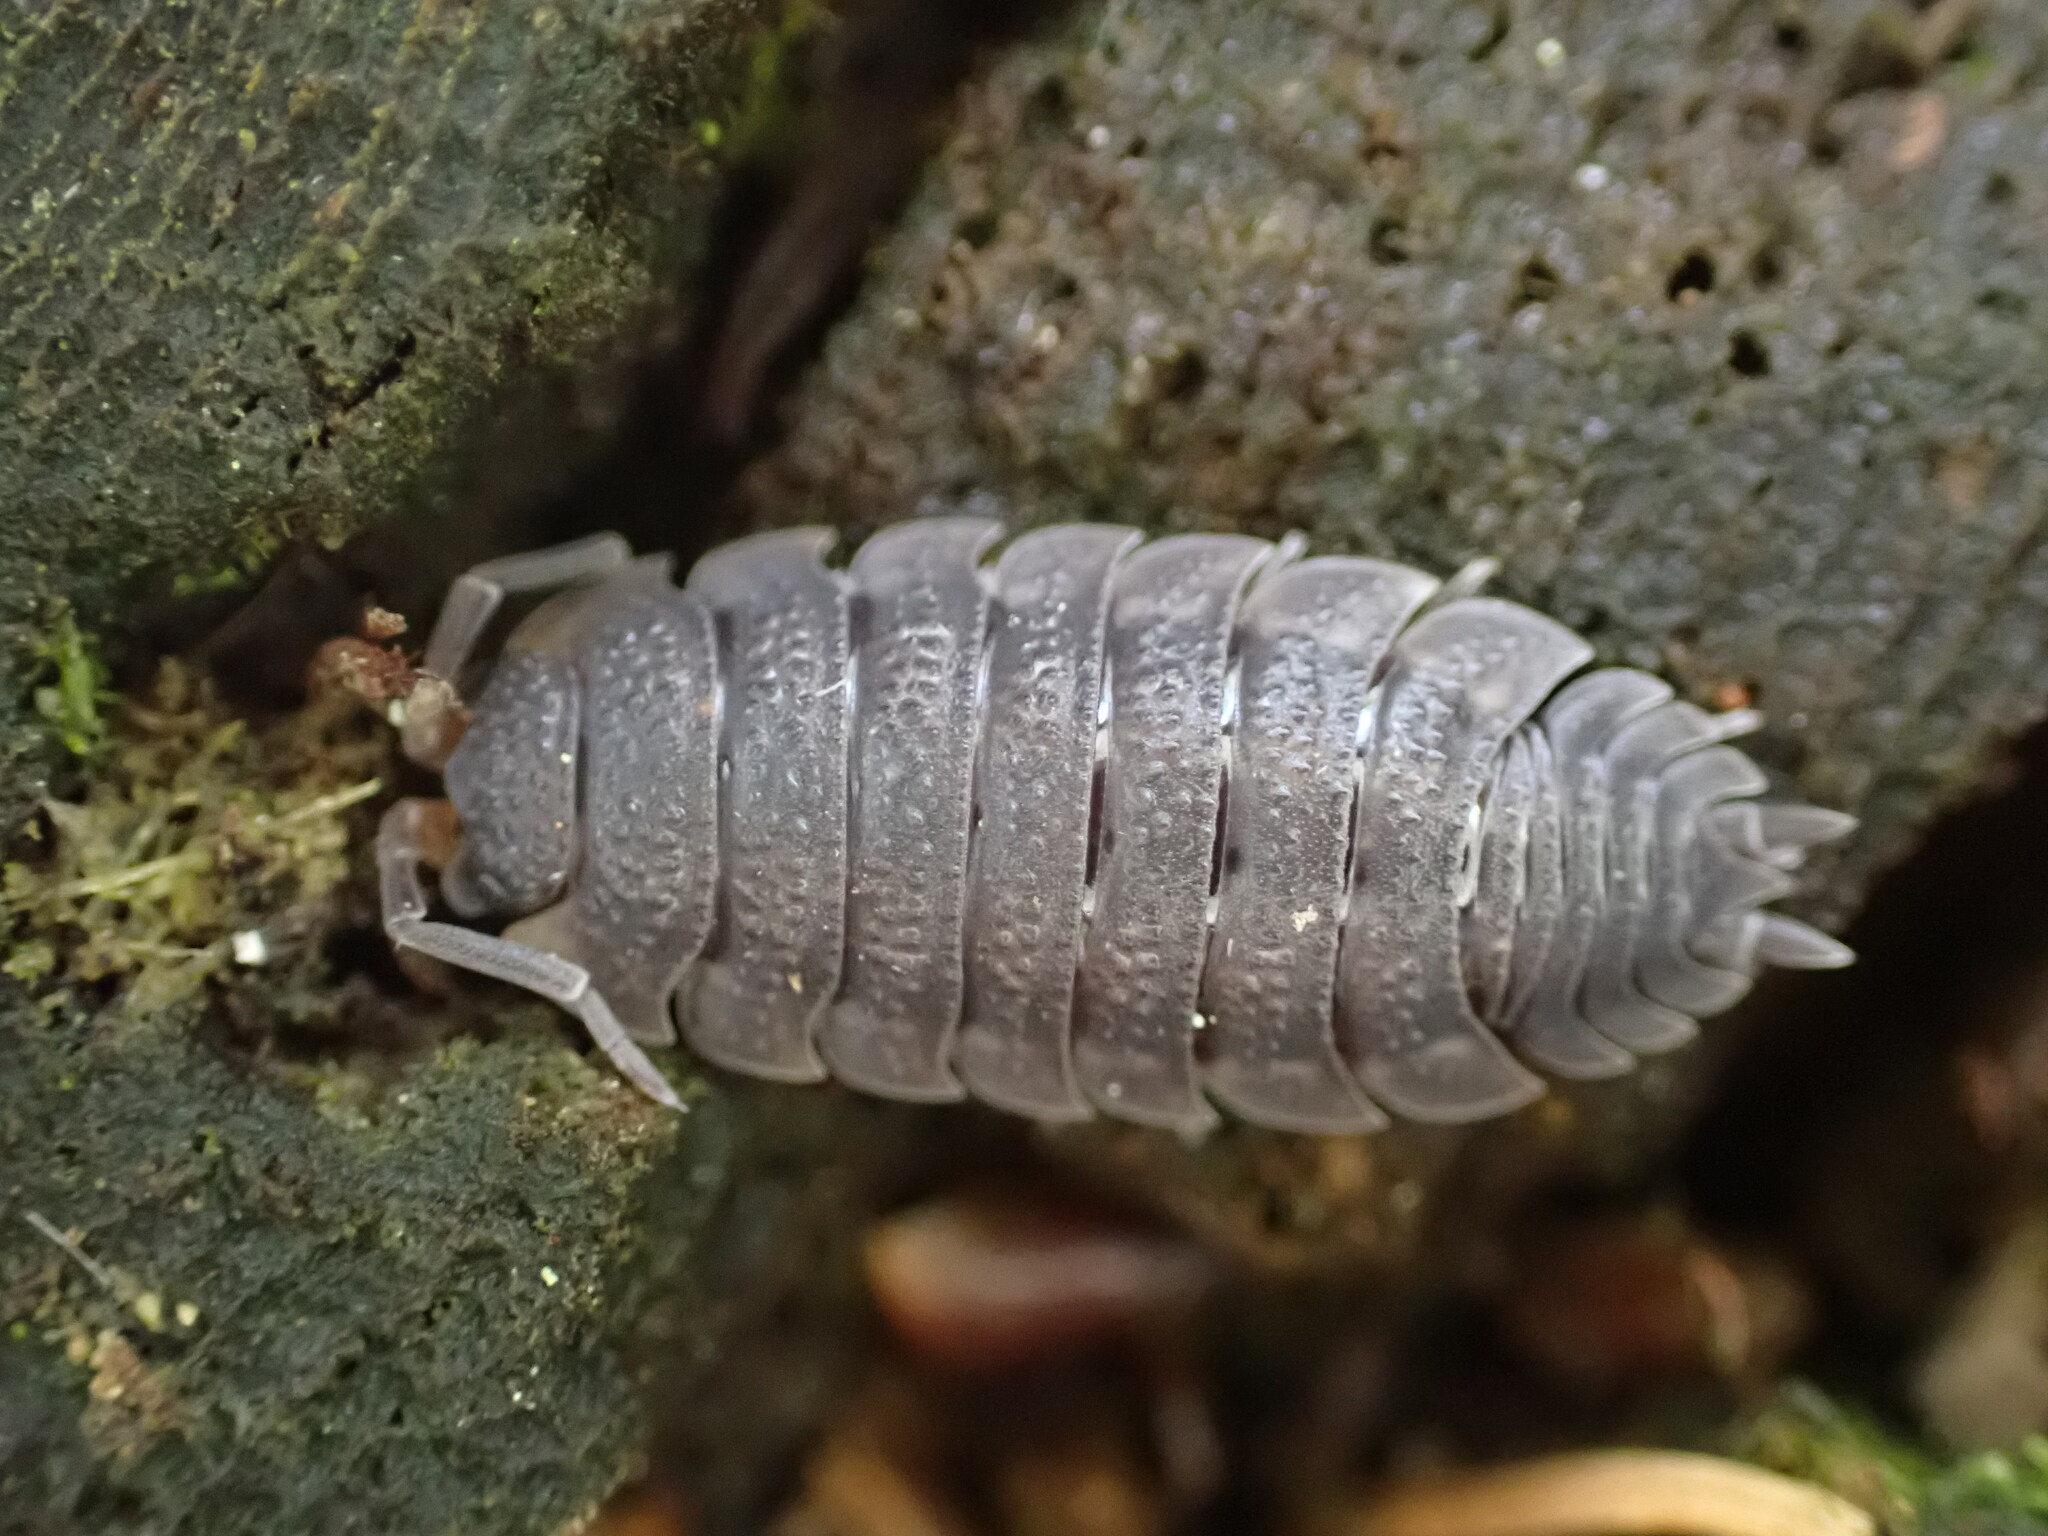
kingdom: Animalia
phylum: Arthropoda
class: Malacostraca
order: Isopoda
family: Porcellionidae
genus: Porcellio
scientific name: Porcellio scaber
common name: Common rough woodlouse
